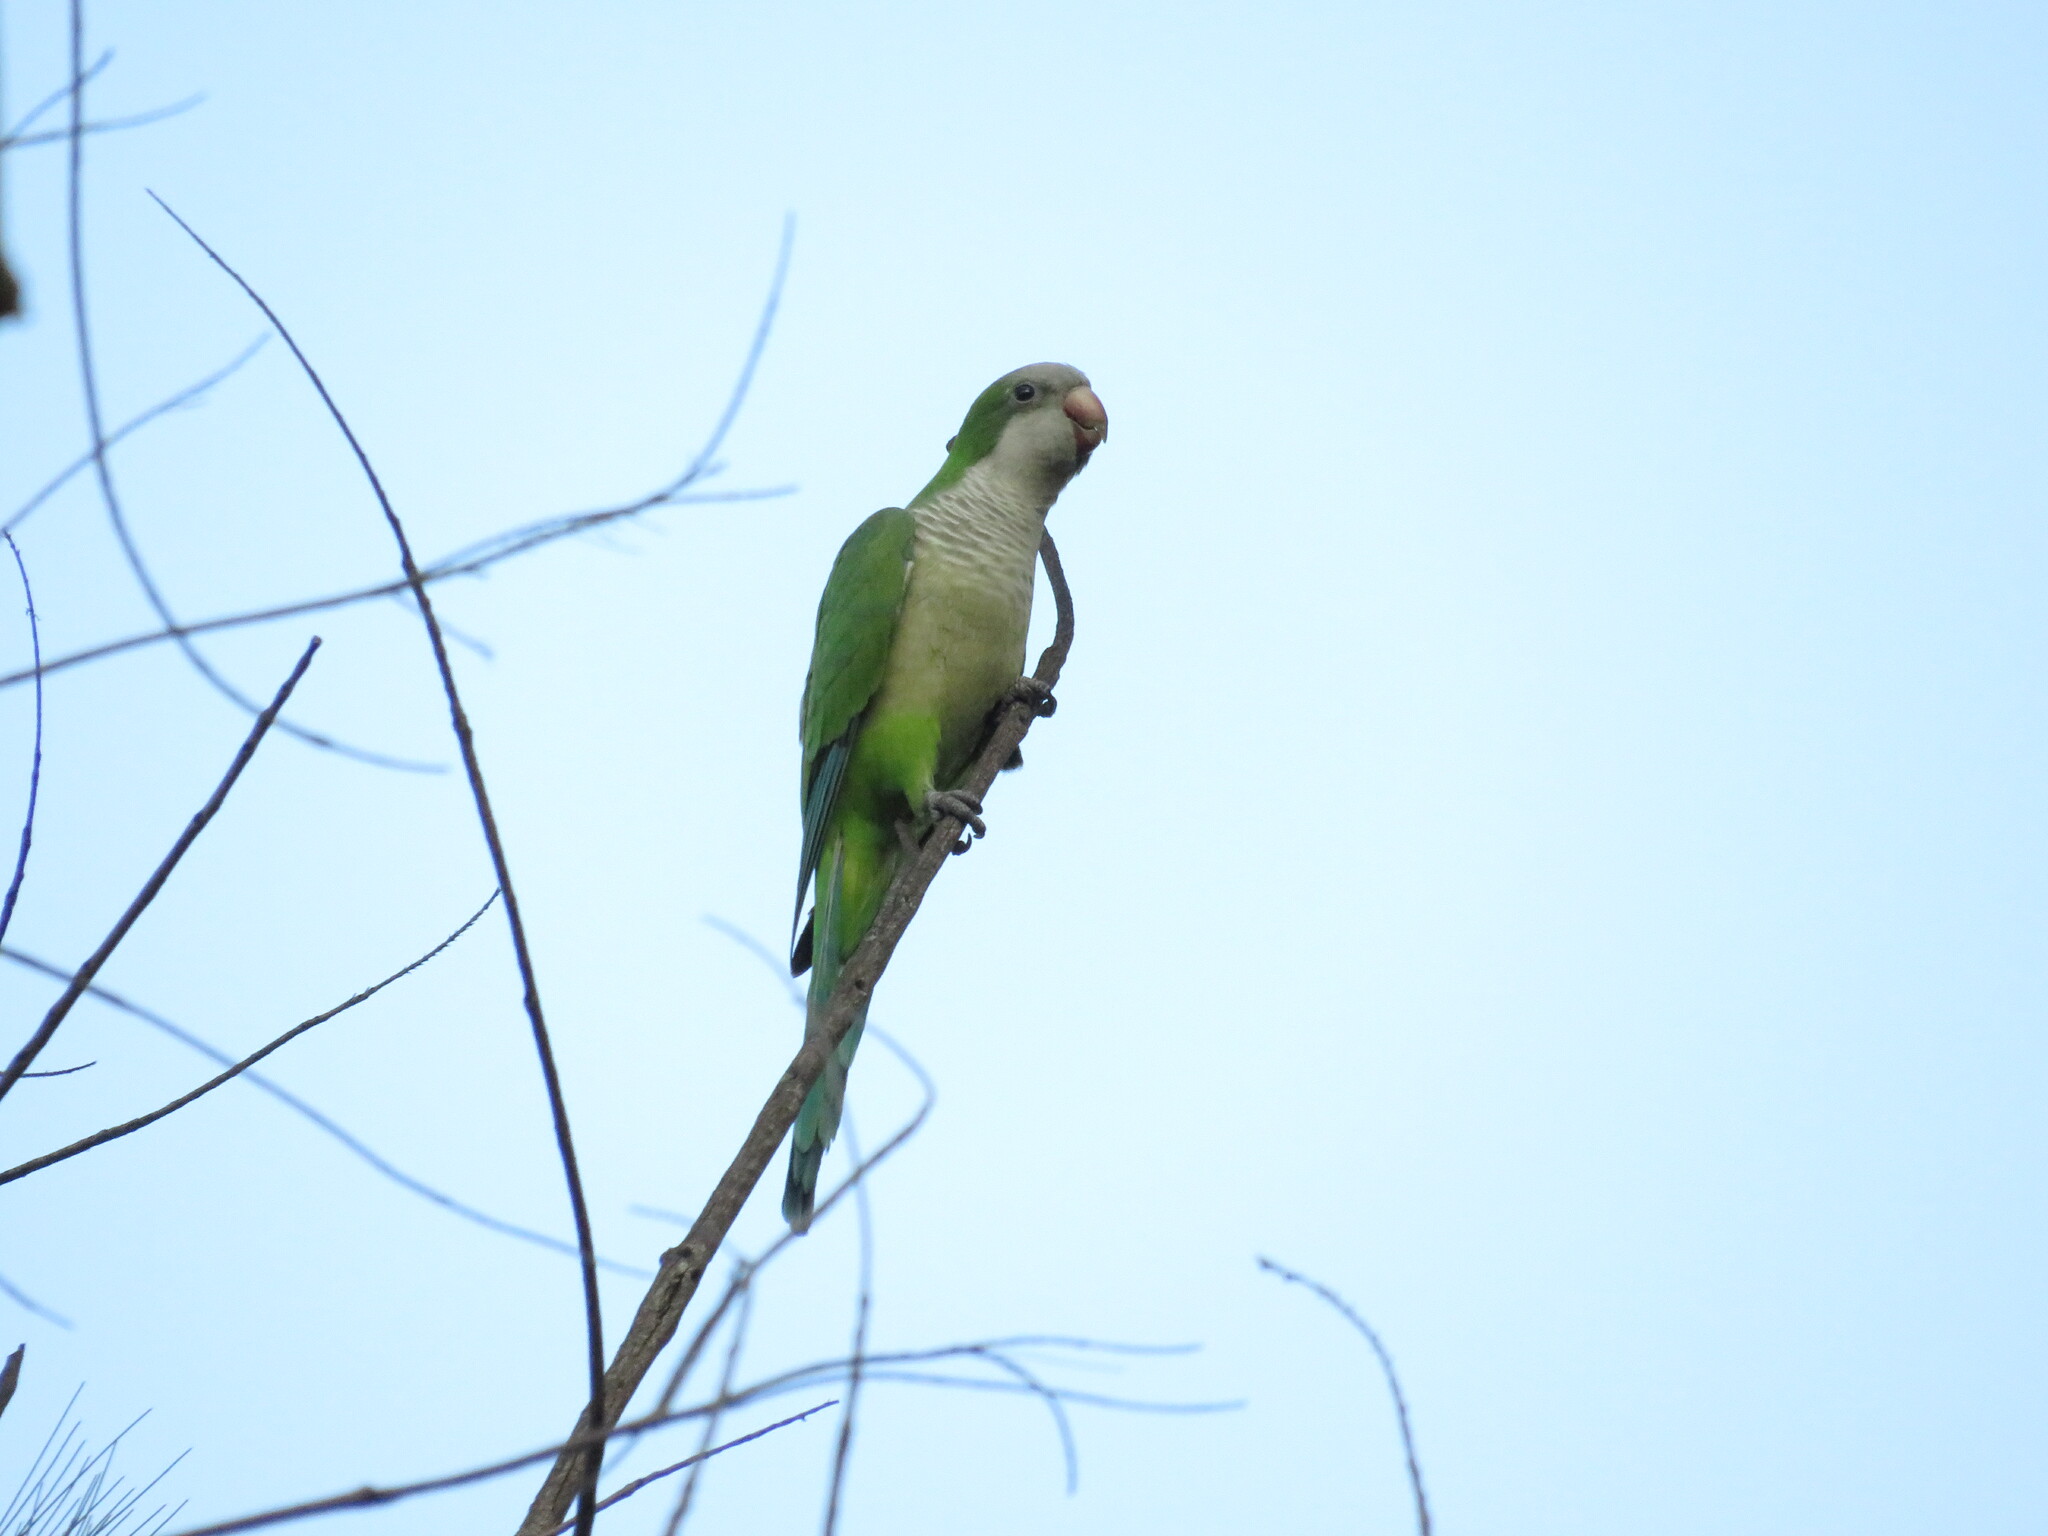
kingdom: Animalia
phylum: Chordata
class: Aves
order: Psittaciformes
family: Psittacidae
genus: Myiopsitta
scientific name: Myiopsitta monachus
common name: Monk parakeet
